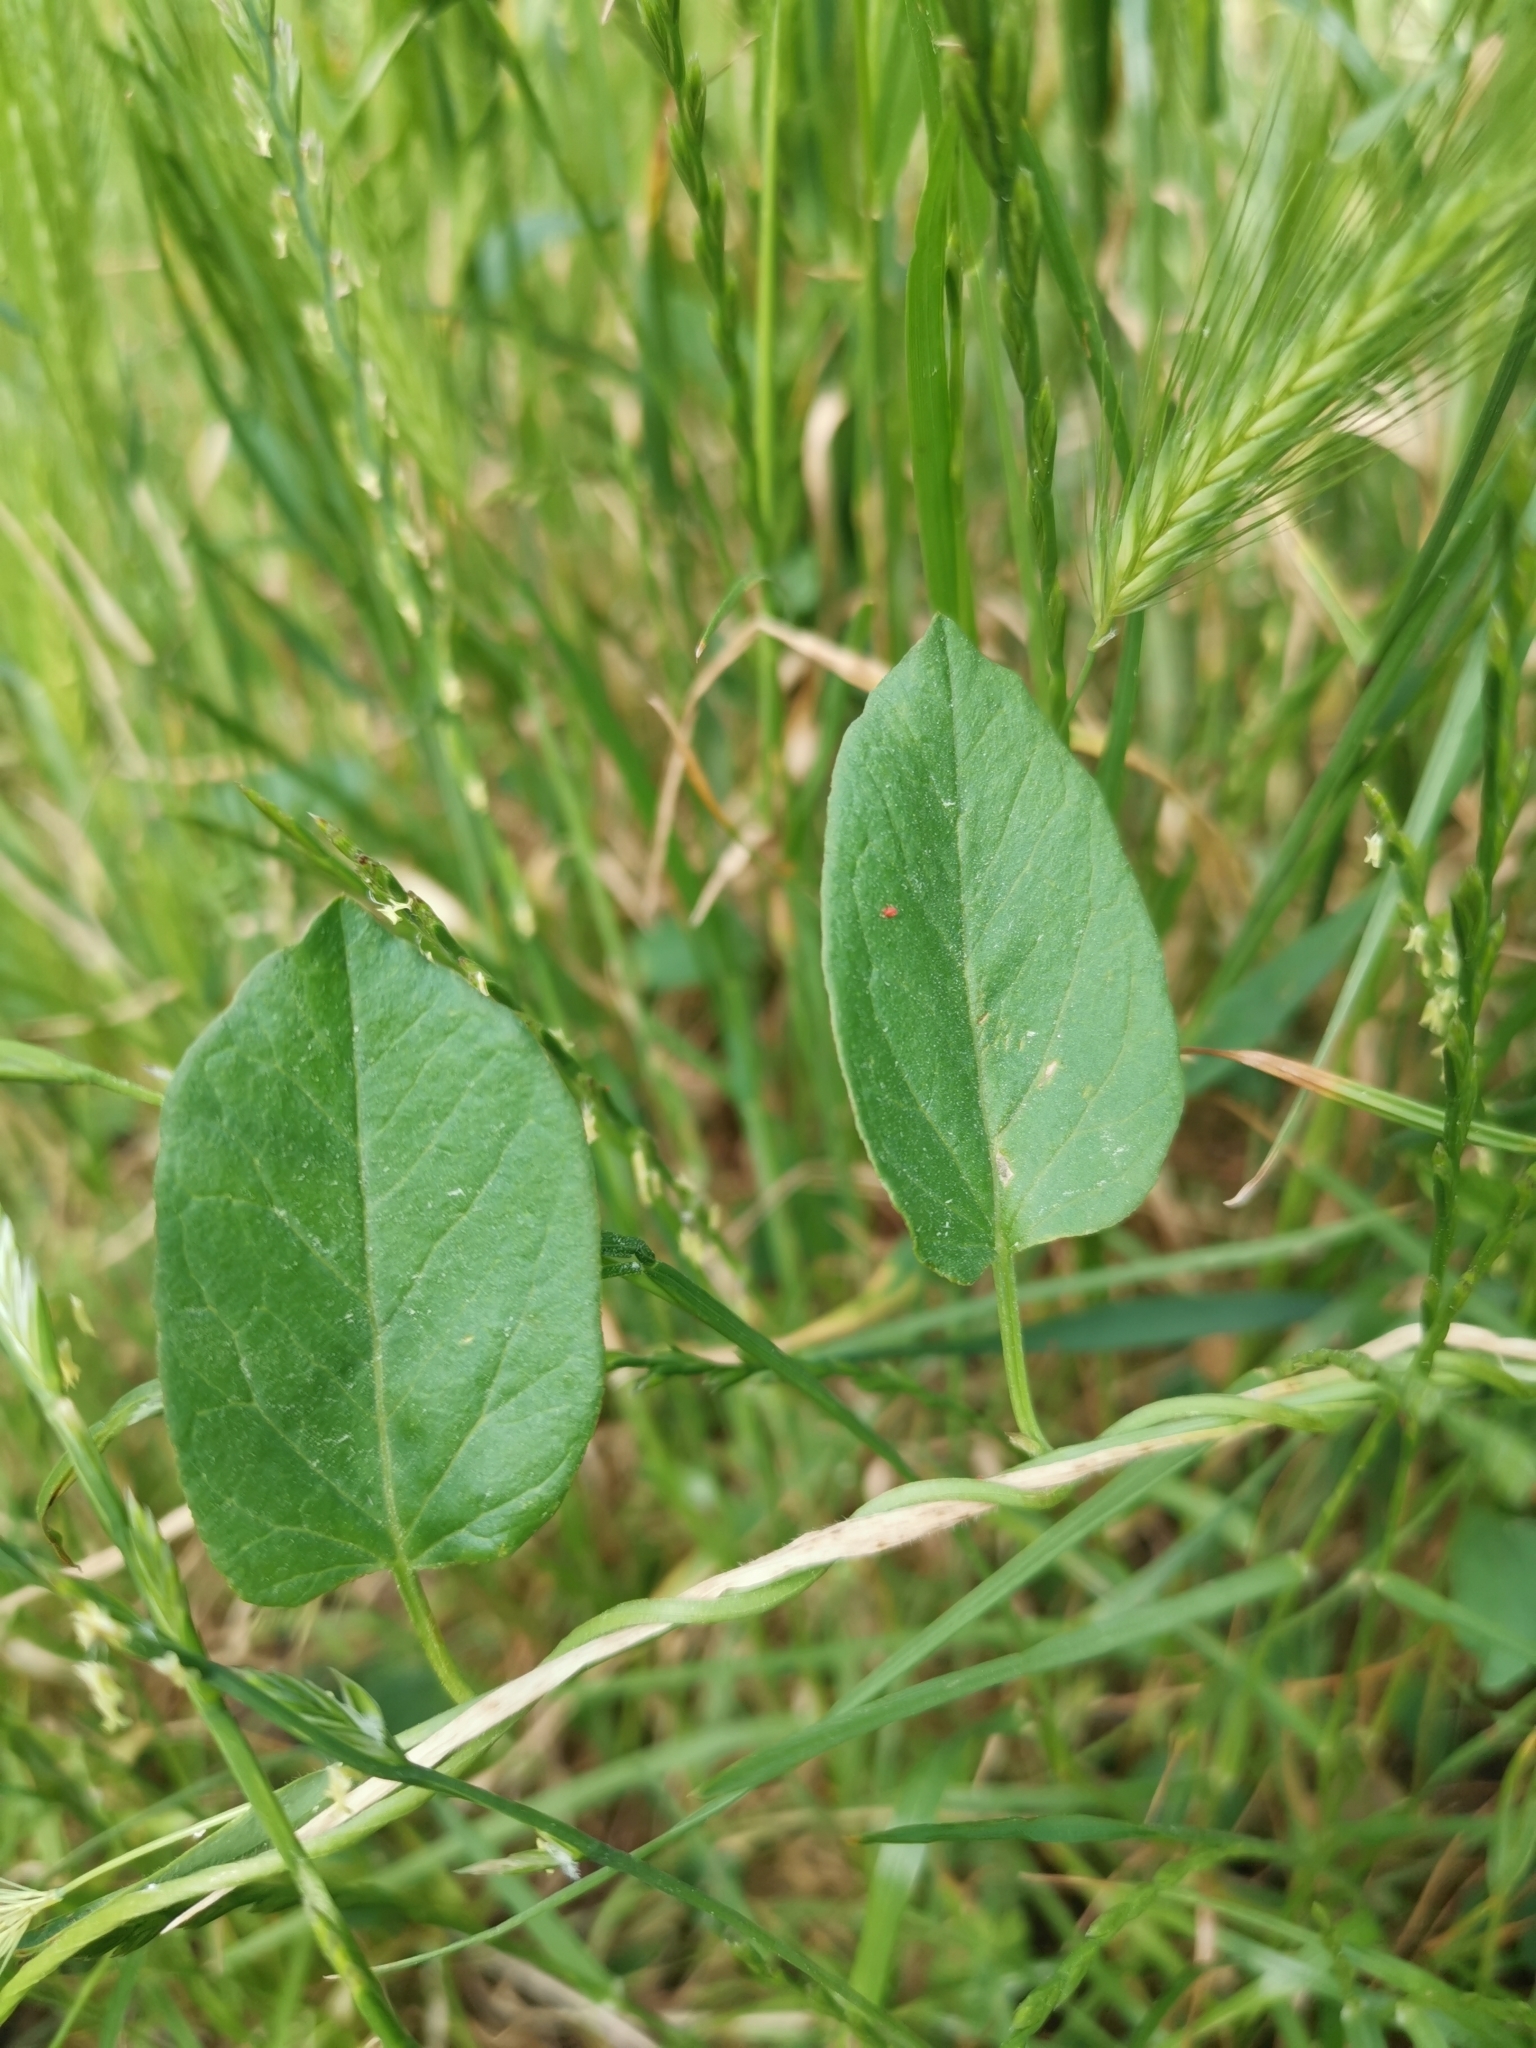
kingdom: Plantae
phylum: Tracheophyta
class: Magnoliopsida
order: Solanales
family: Convolvulaceae
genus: Convolvulus
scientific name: Convolvulus arvensis
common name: Field bindweed
